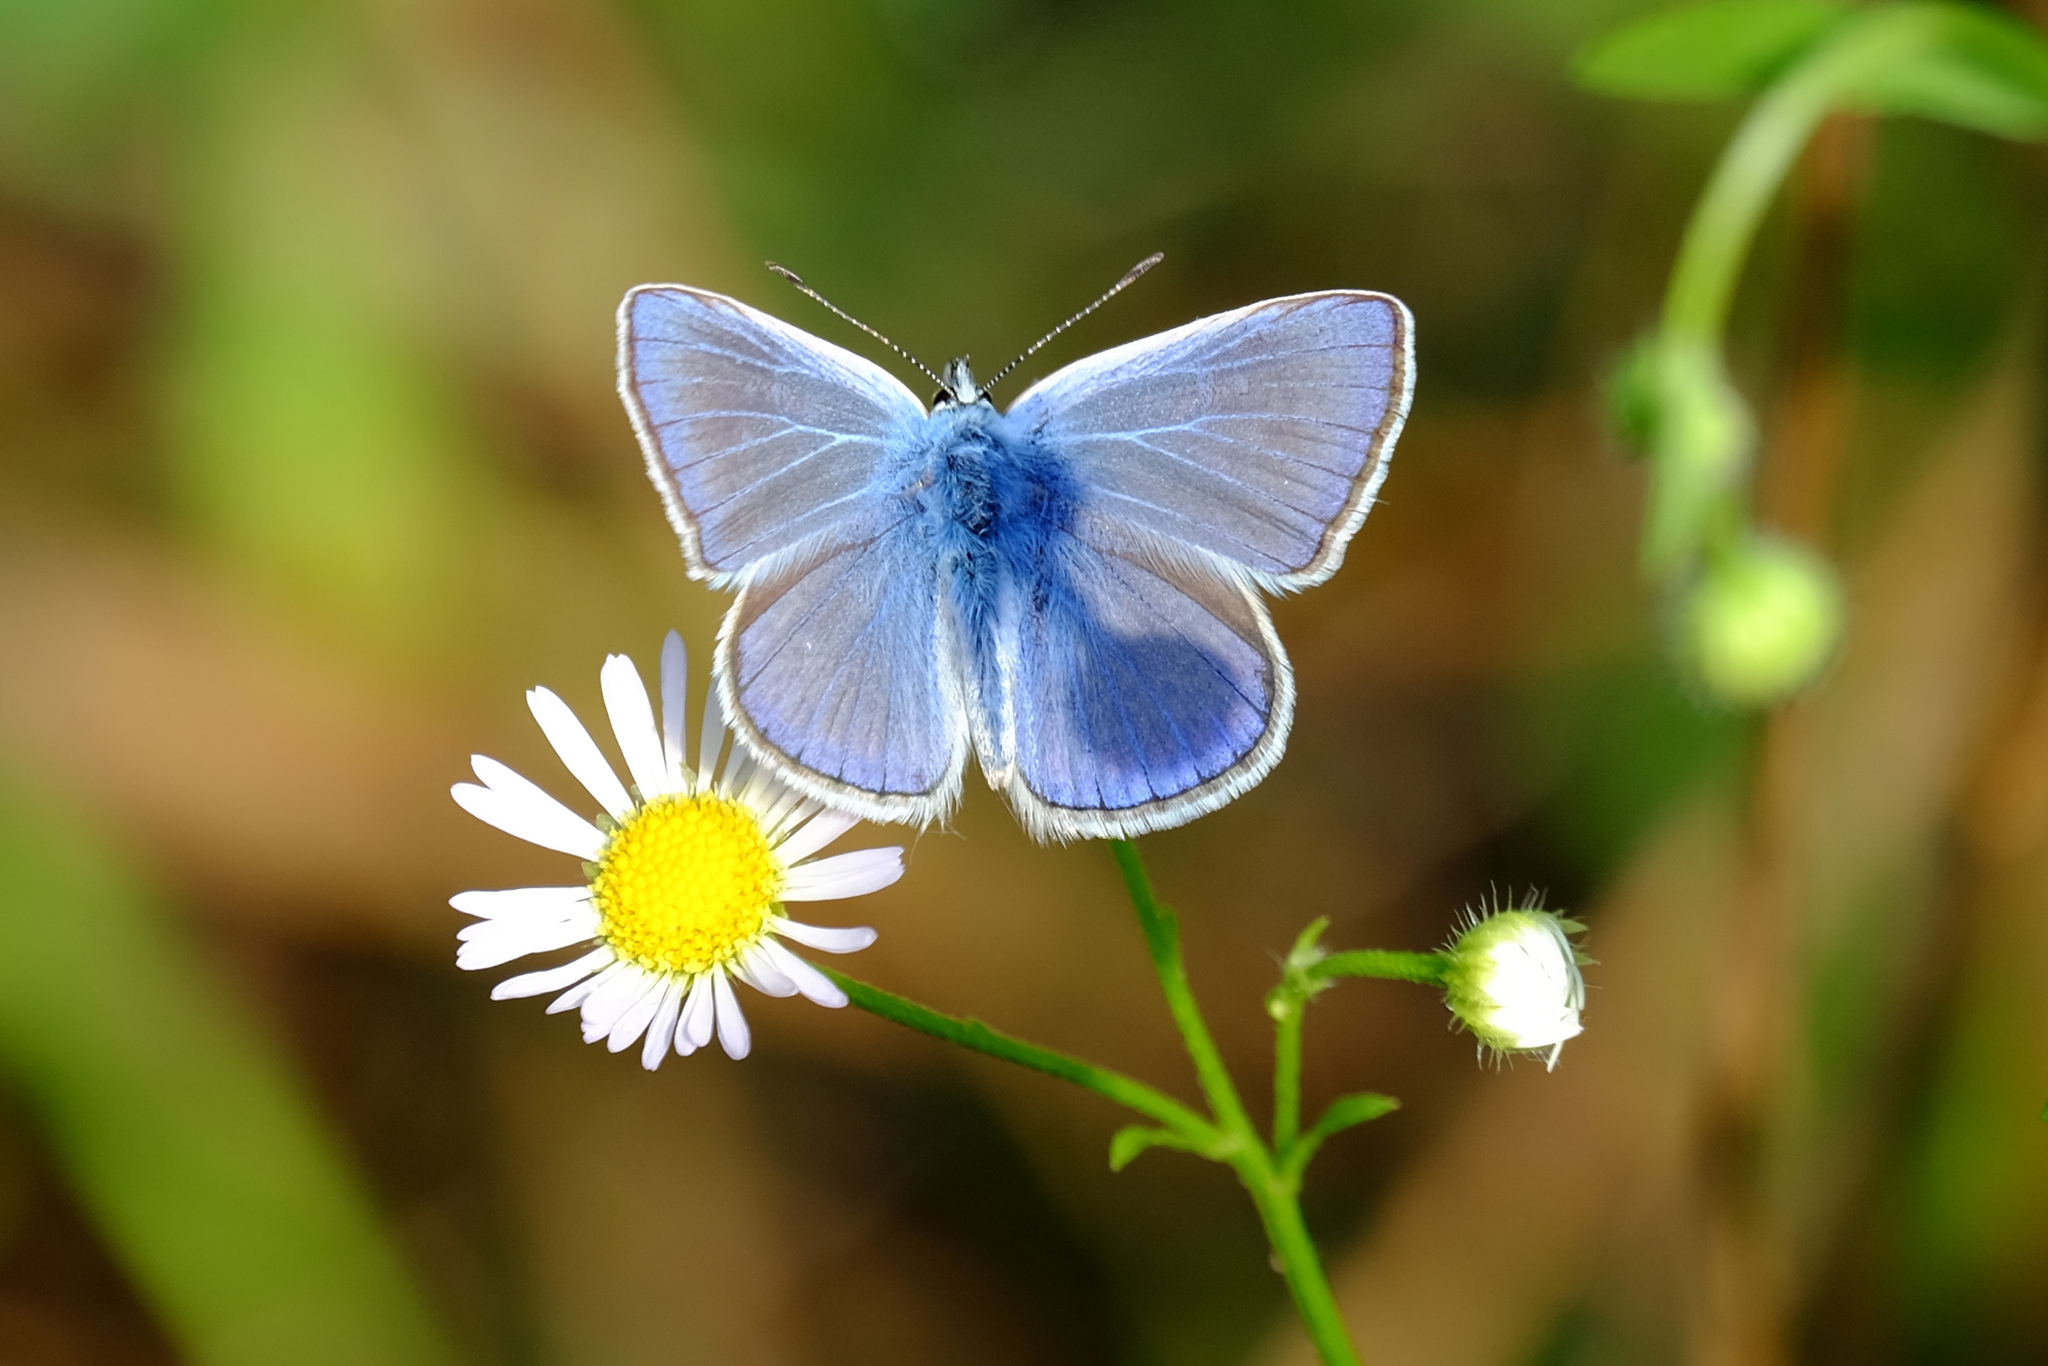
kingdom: Animalia
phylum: Arthropoda
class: Insecta
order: Lepidoptera
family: Lycaenidae
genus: Polyommatus
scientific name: Polyommatus icarus
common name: Common blue
